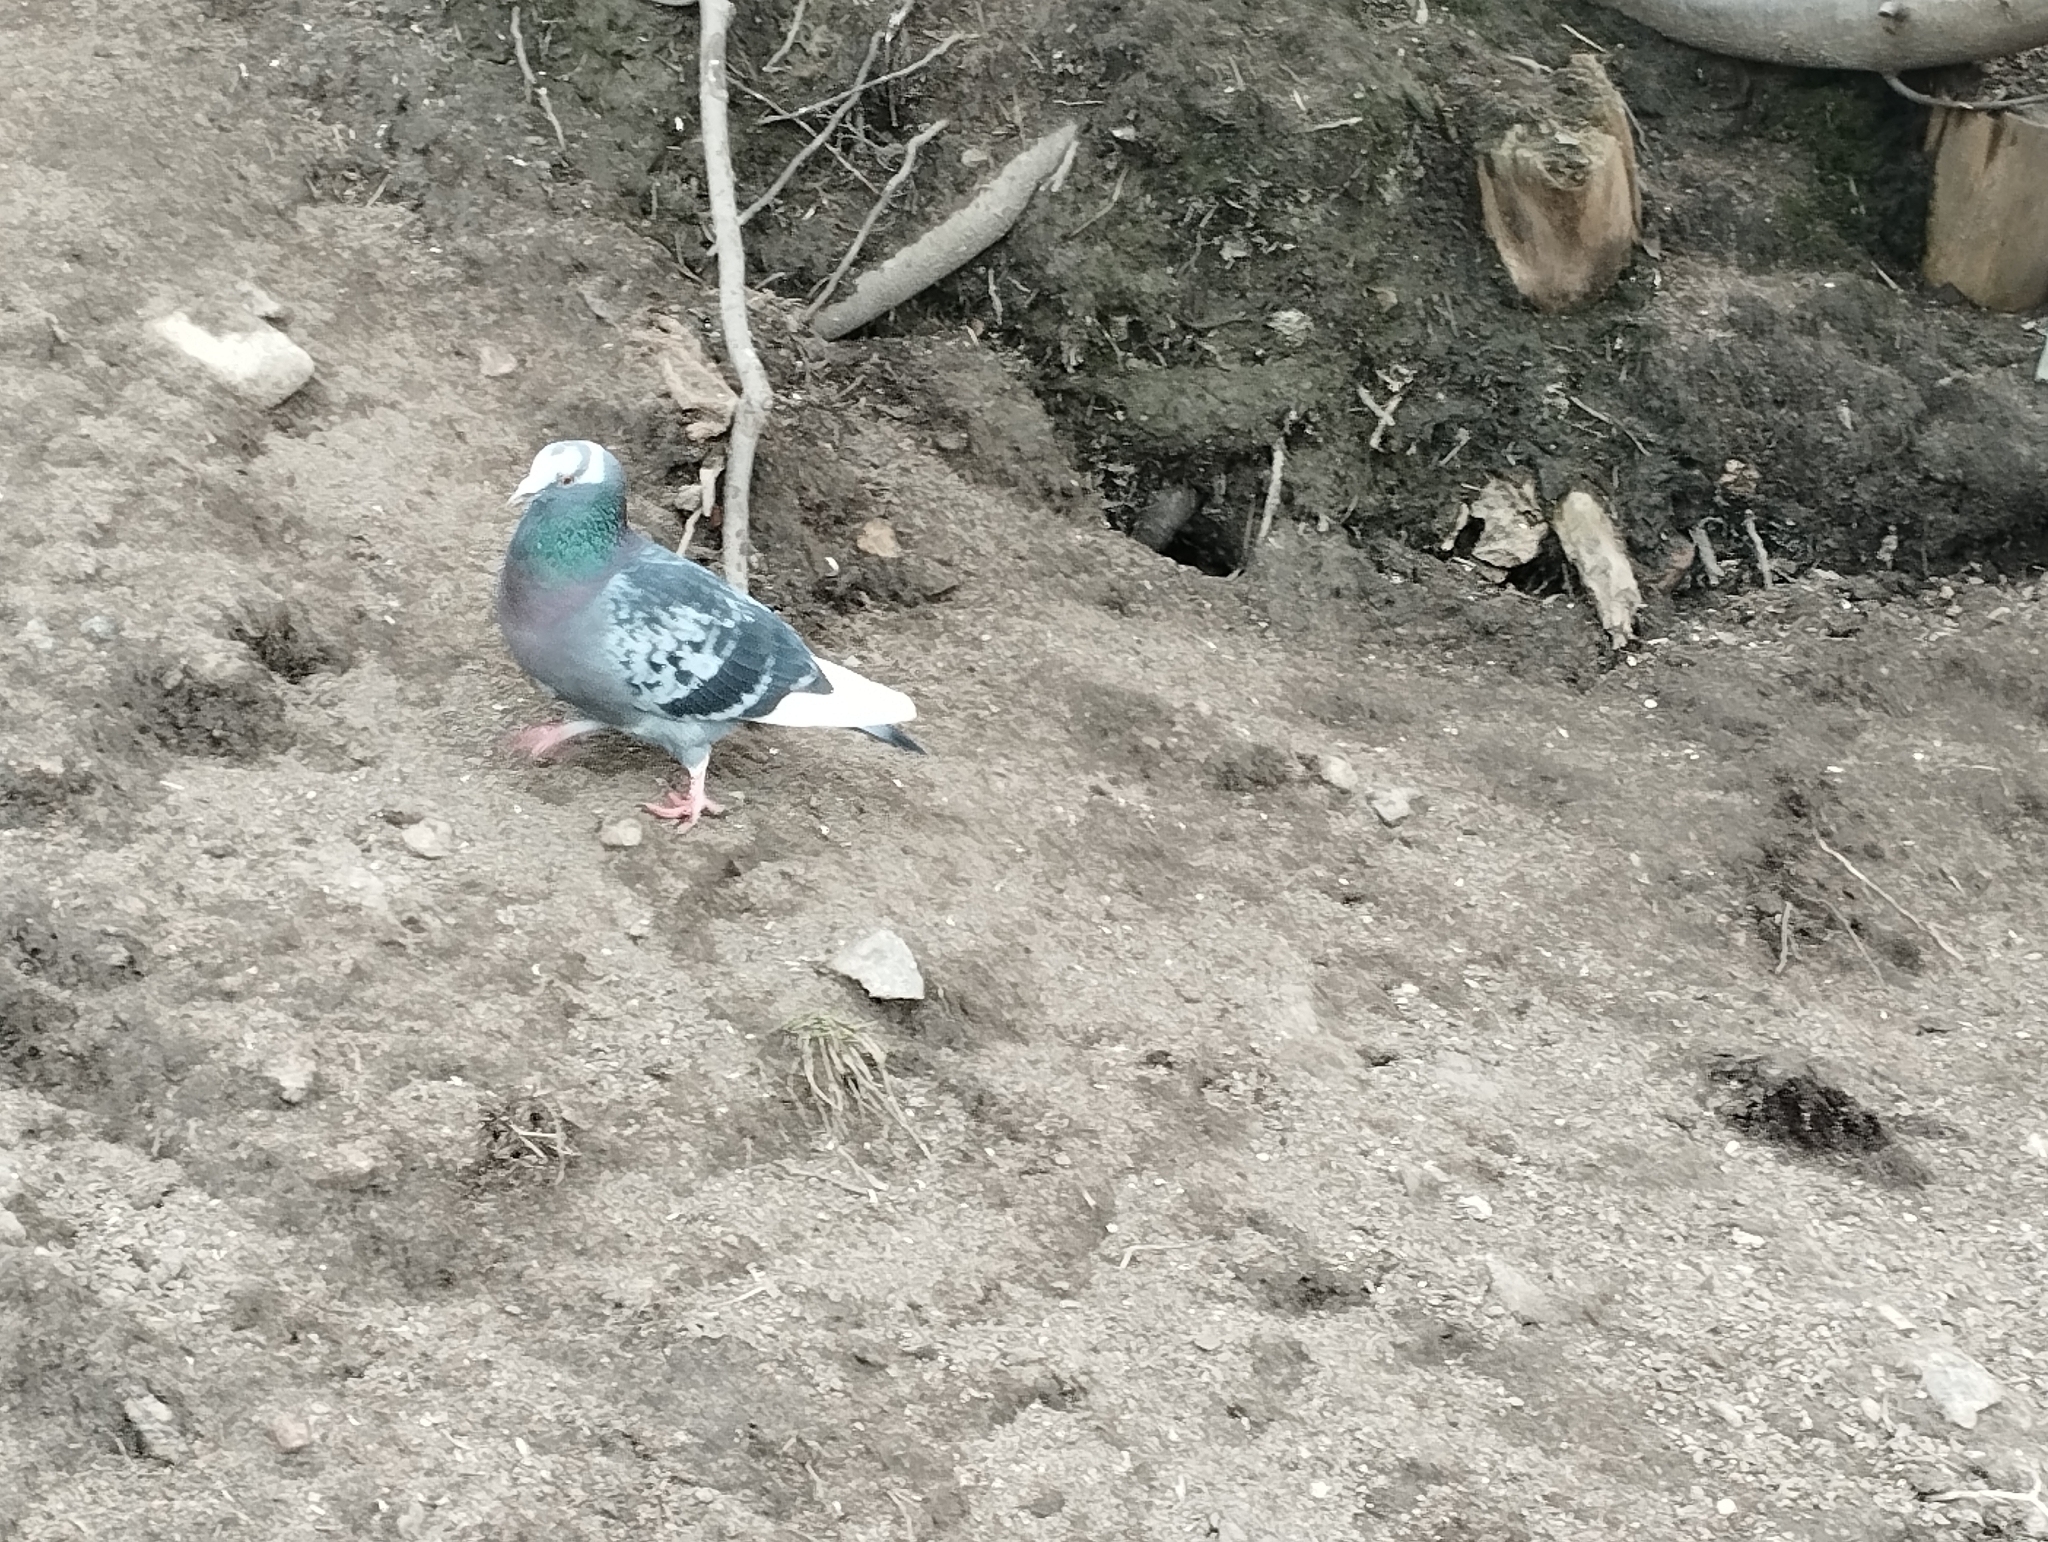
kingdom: Animalia
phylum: Chordata
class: Aves
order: Columbiformes
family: Columbidae
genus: Columba
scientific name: Columba livia
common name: Rock pigeon
